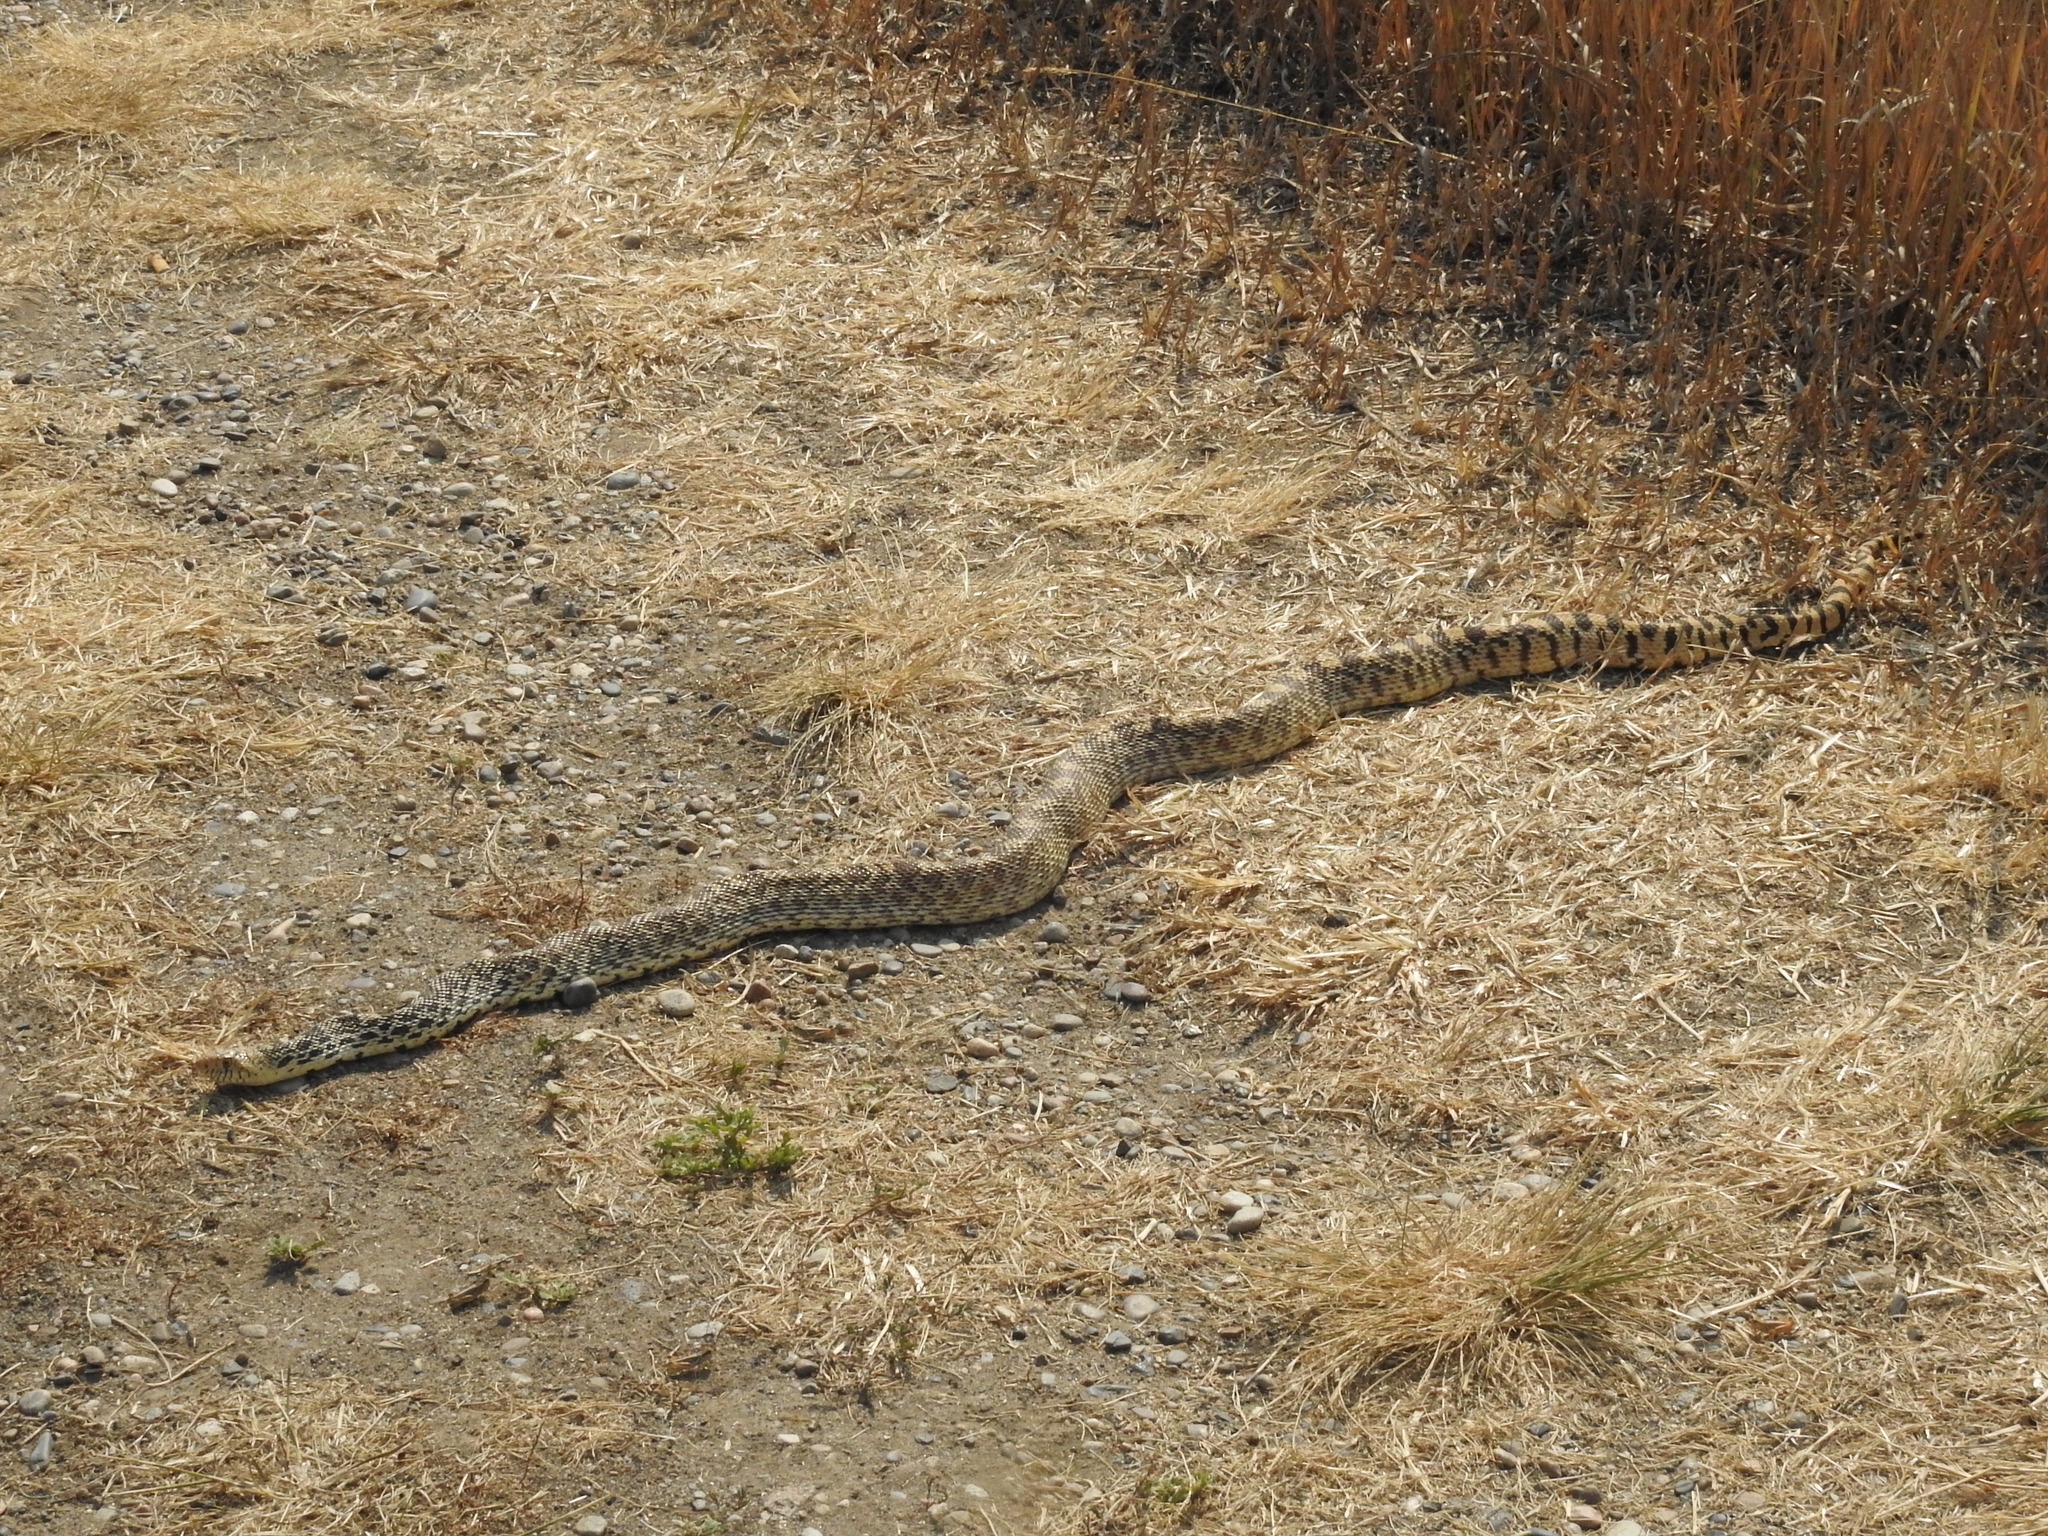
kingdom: Animalia
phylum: Chordata
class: Squamata
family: Colubridae
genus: Pituophis
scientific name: Pituophis catenifer
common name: Gopher snake
